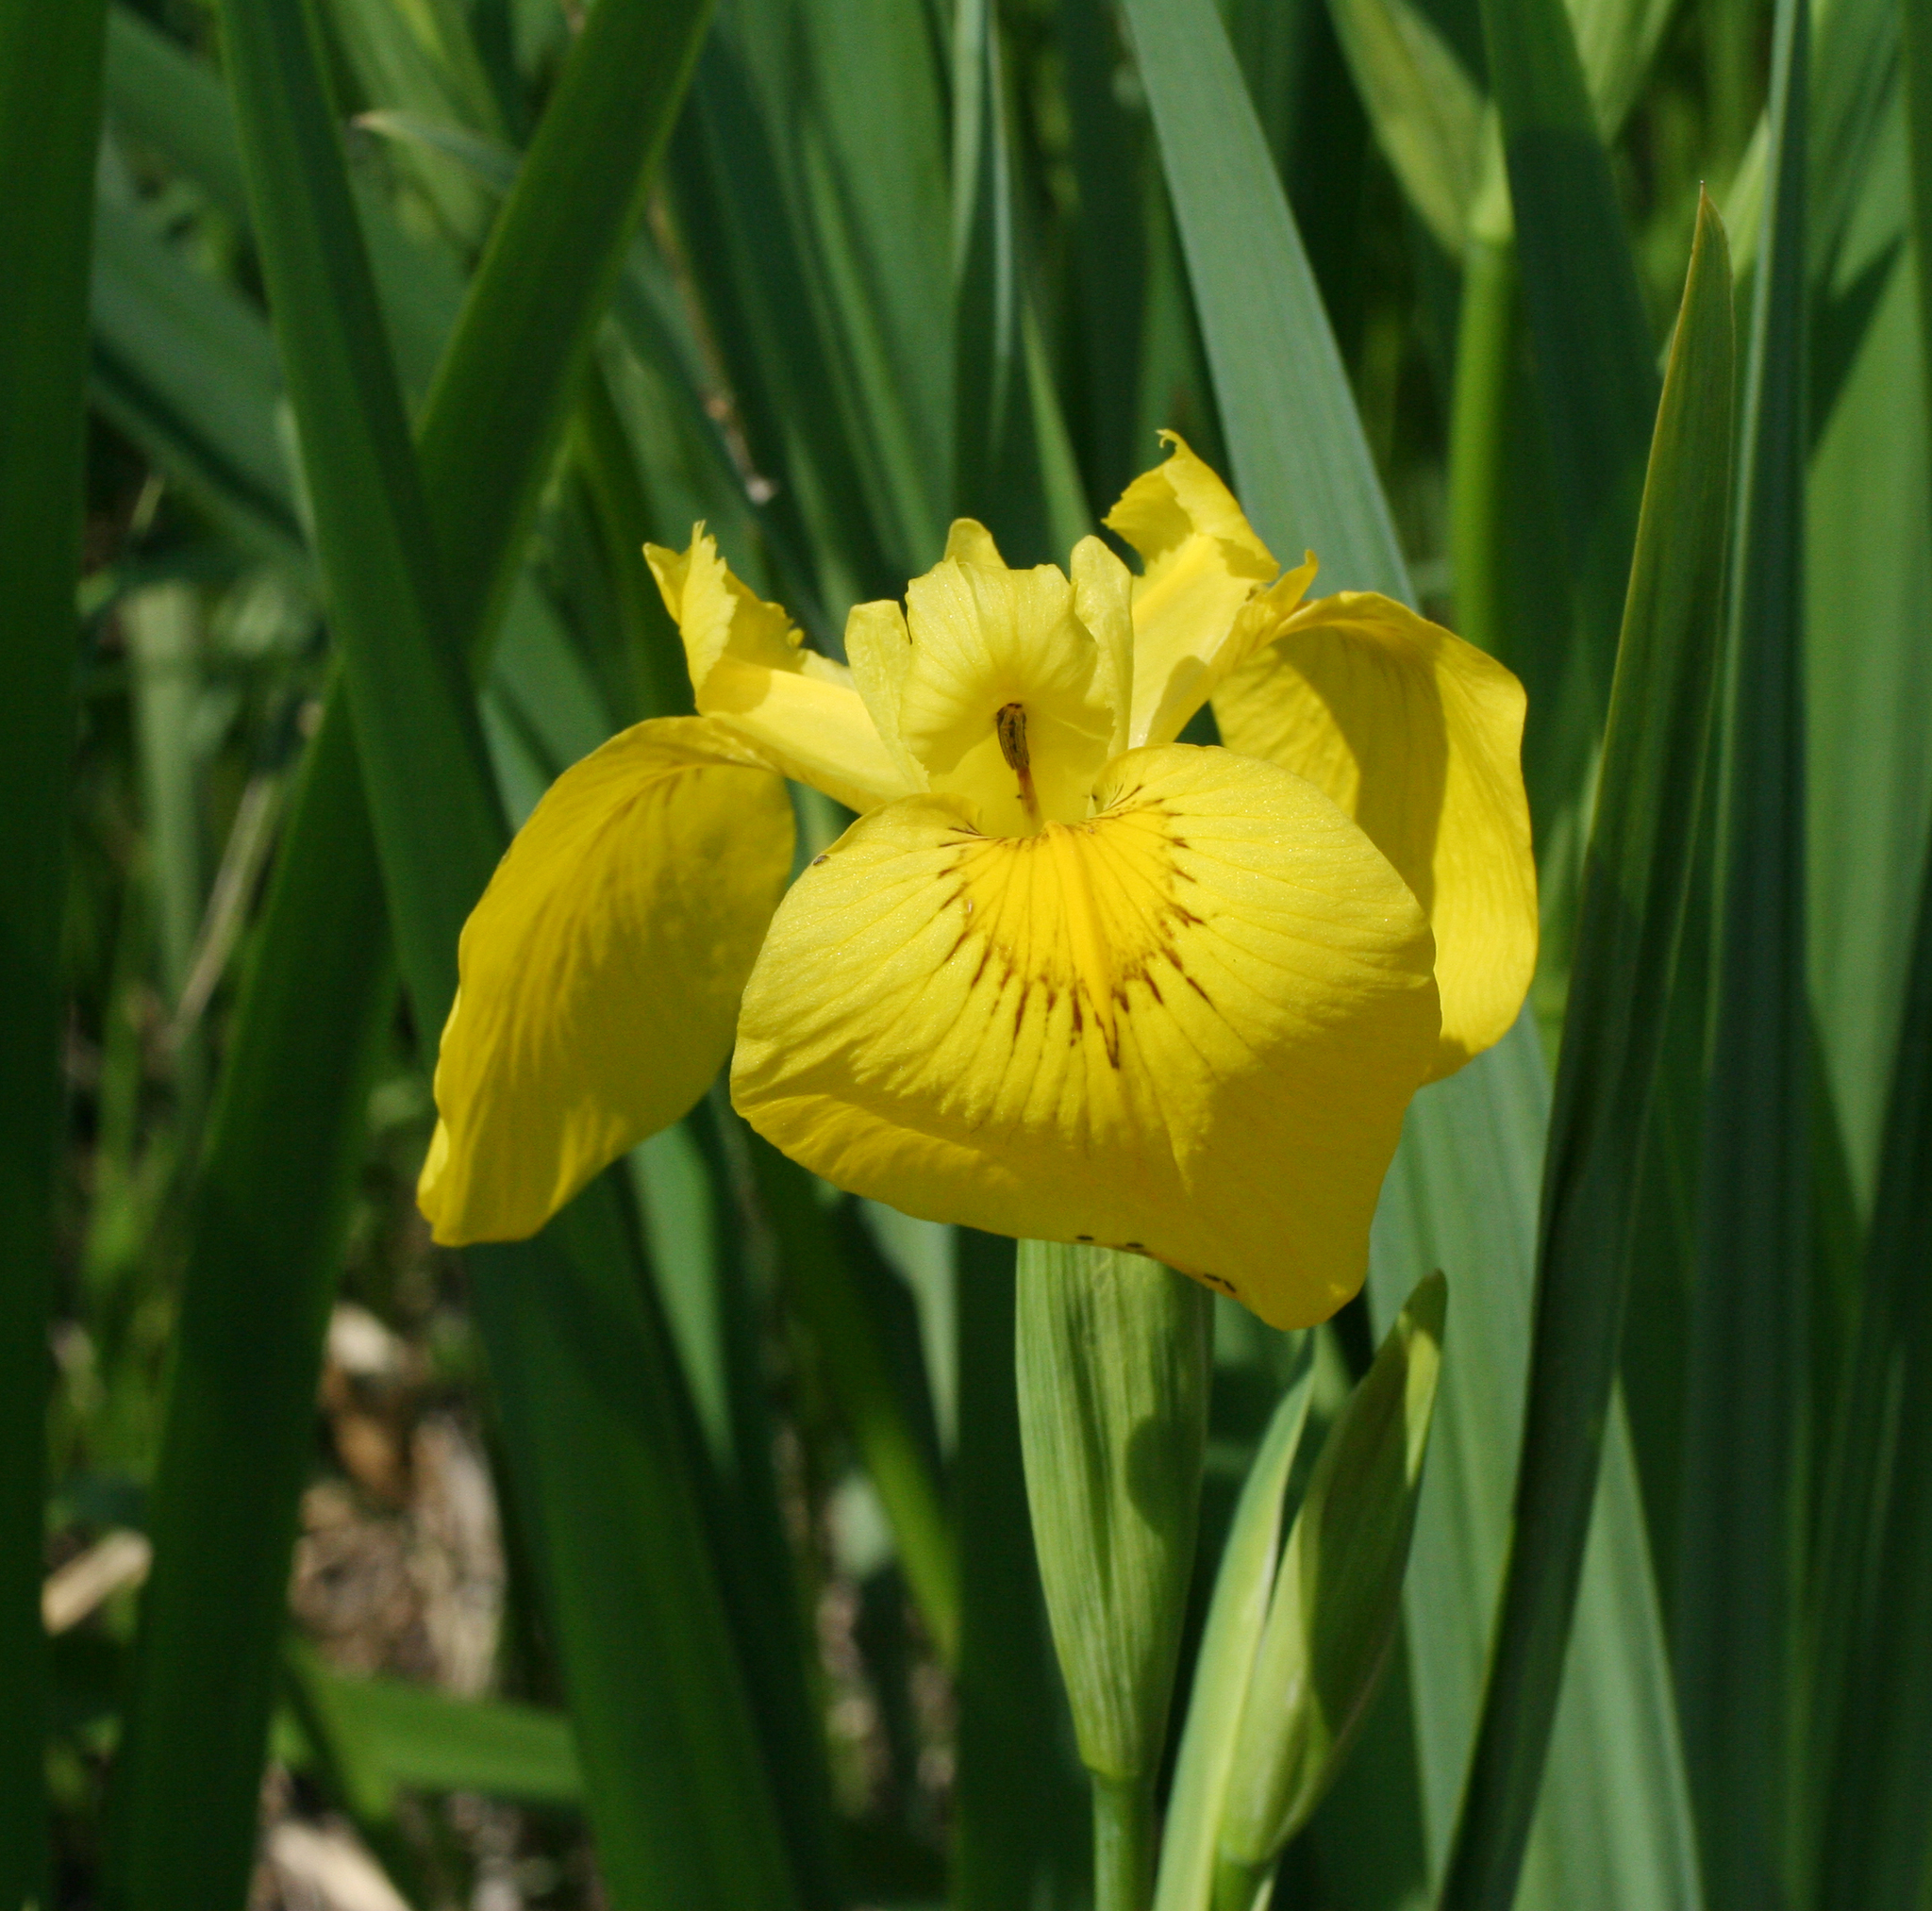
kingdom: Plantae
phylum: Tracheophyta
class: Liliopsida
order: Asparagales
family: Iridaceae
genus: Iris
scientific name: Iris pseudacorus
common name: Yellow flag
